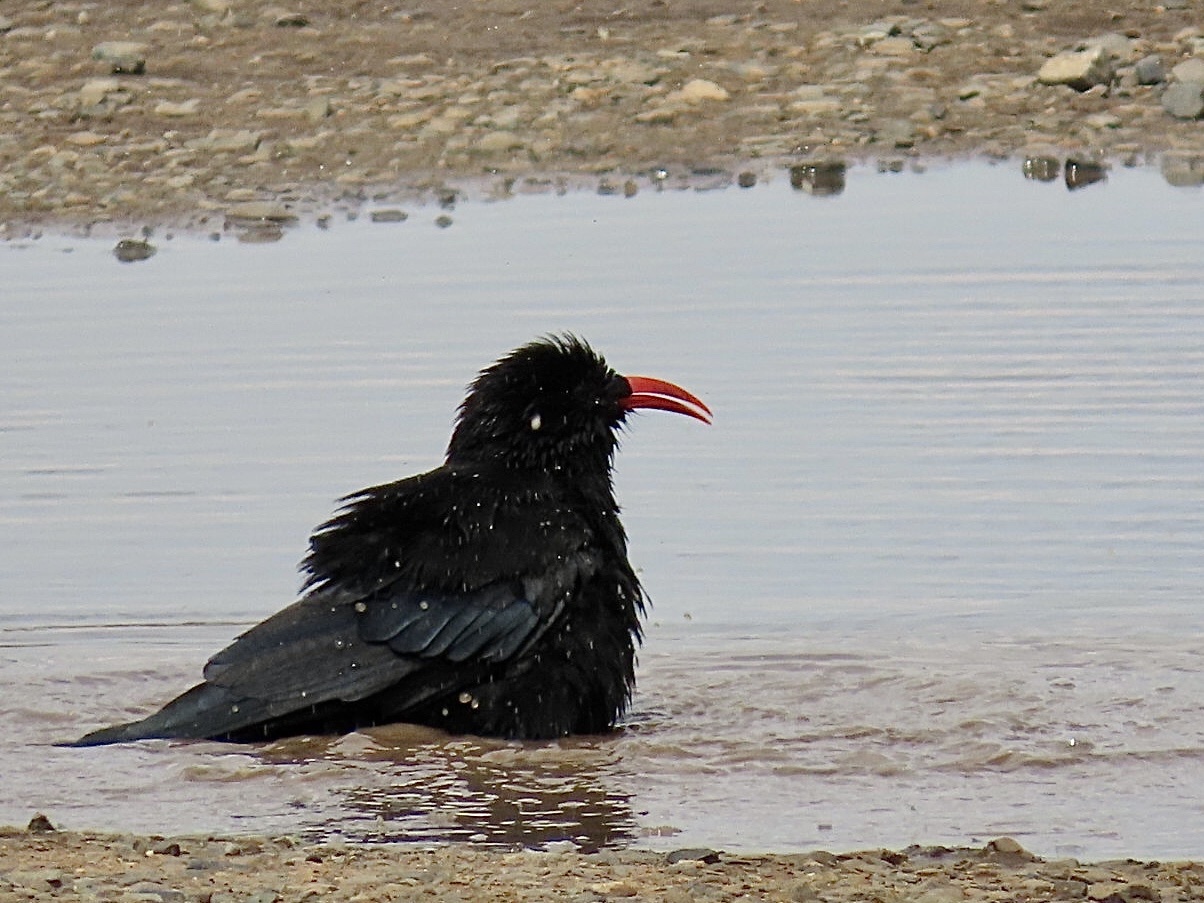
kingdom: Animalia
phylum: Chordata
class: Aves
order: Passeriformes
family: Corvidae
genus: Pyrrhocorax
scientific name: Pyrrhocorax pyrrhocorax
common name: Red-billed chough
